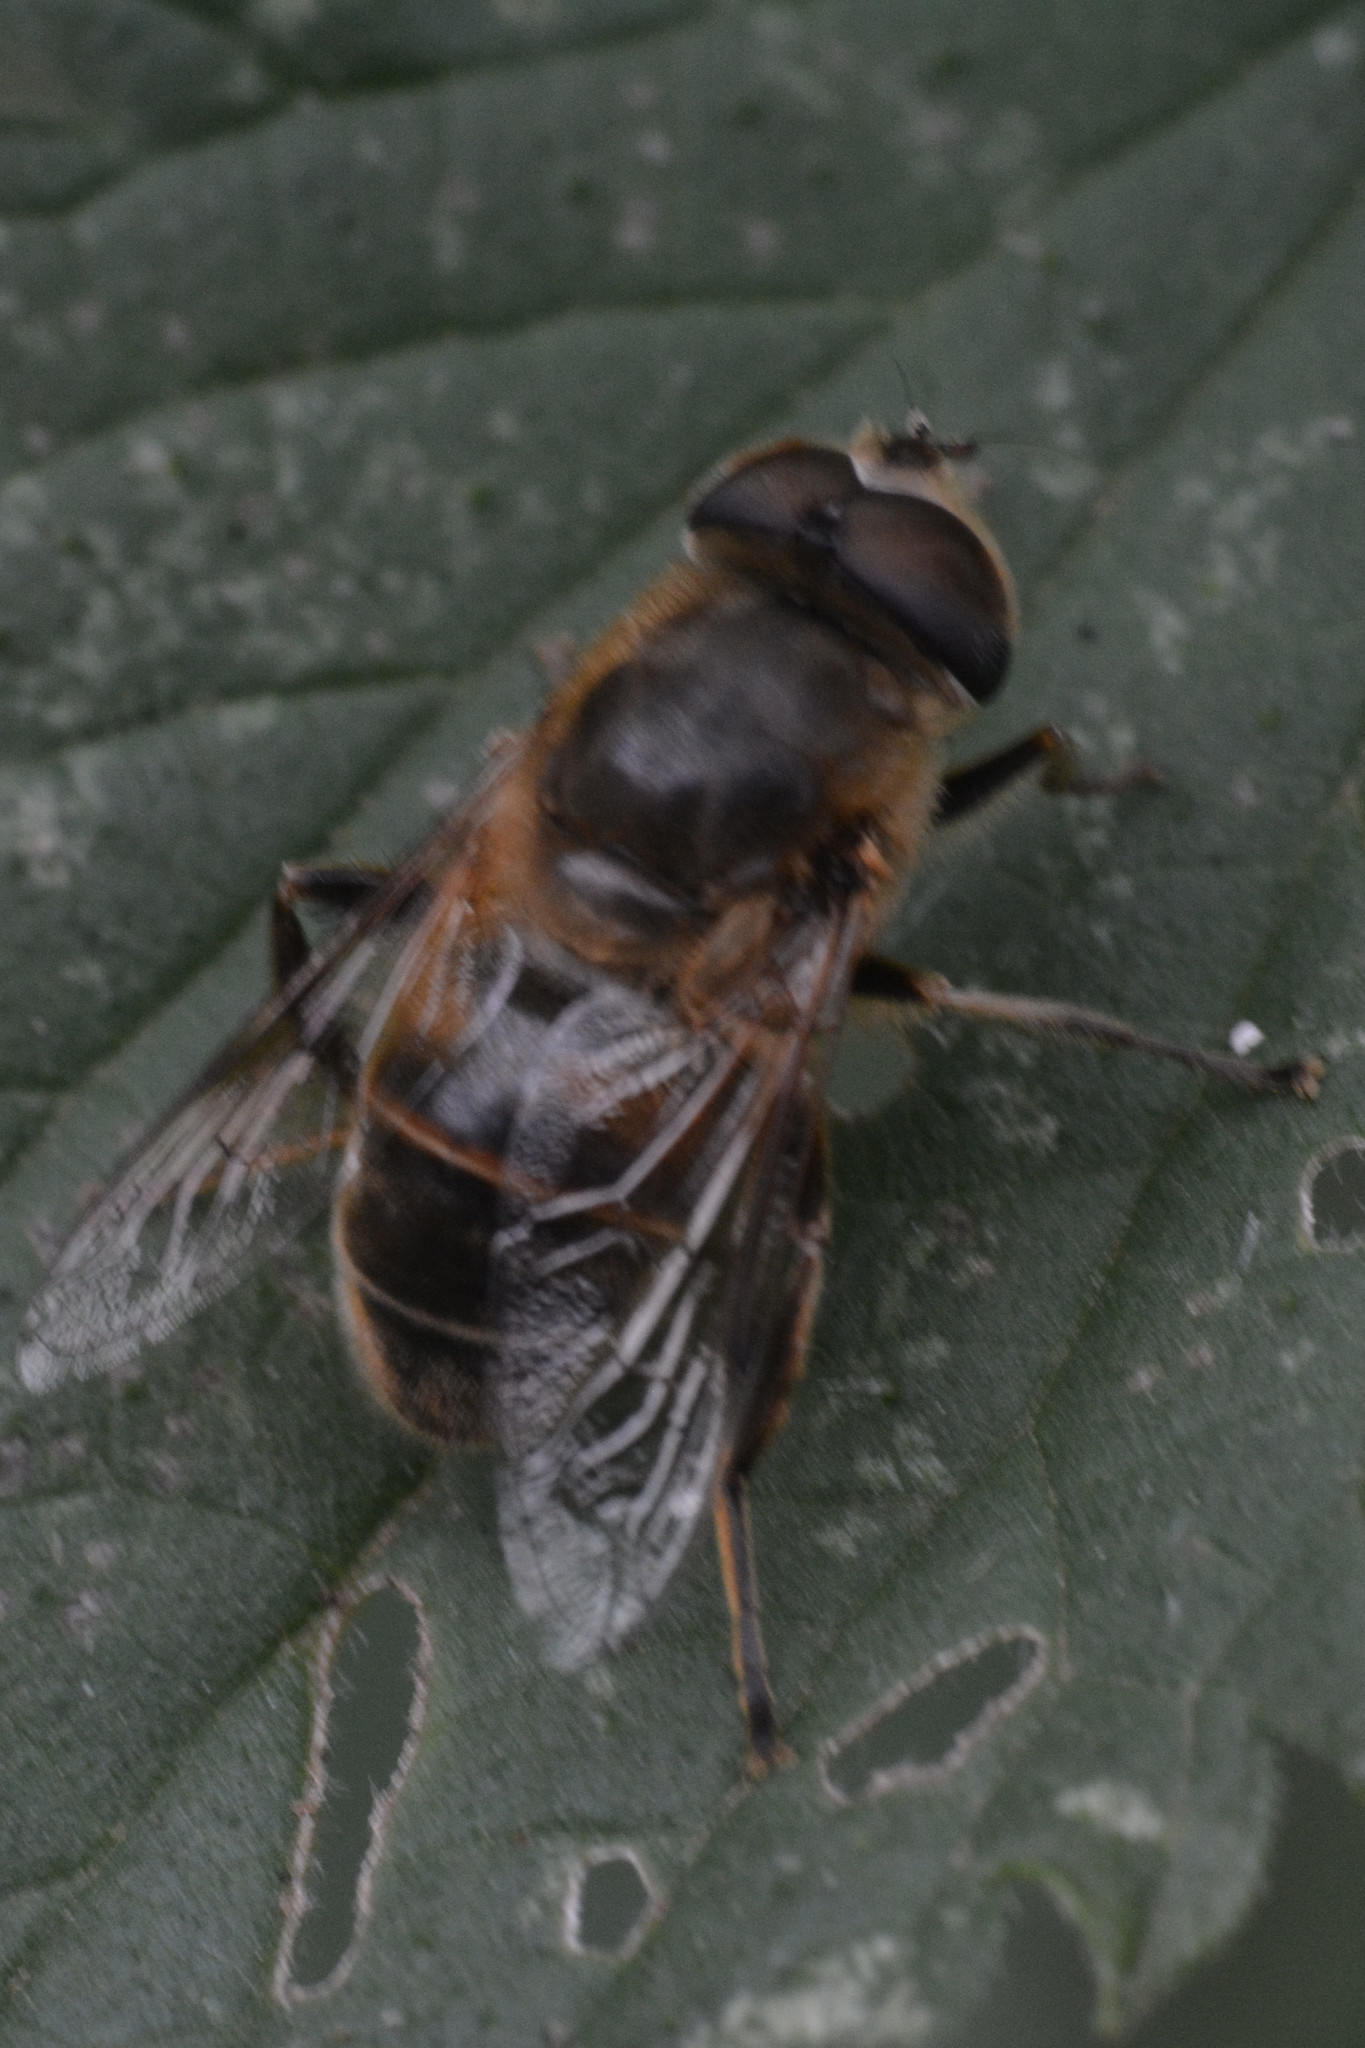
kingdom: Animalia
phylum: Arthropoda
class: Insecta
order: Diptera
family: Syrphidae
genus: Eristalis
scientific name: Eristalis tenax
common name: Drone fly
